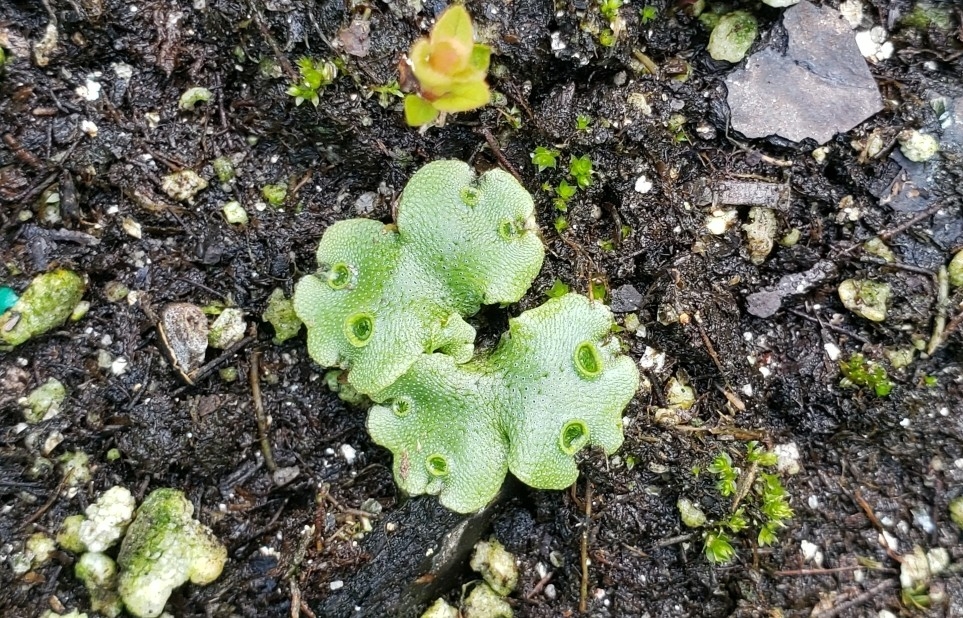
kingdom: Plantae
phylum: Marchantiophyta
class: Marchantiopsida
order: Marchantiales
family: Marchantiaceae
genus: Marchantia
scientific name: Marchantia polymorpha
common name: Common liverwort
